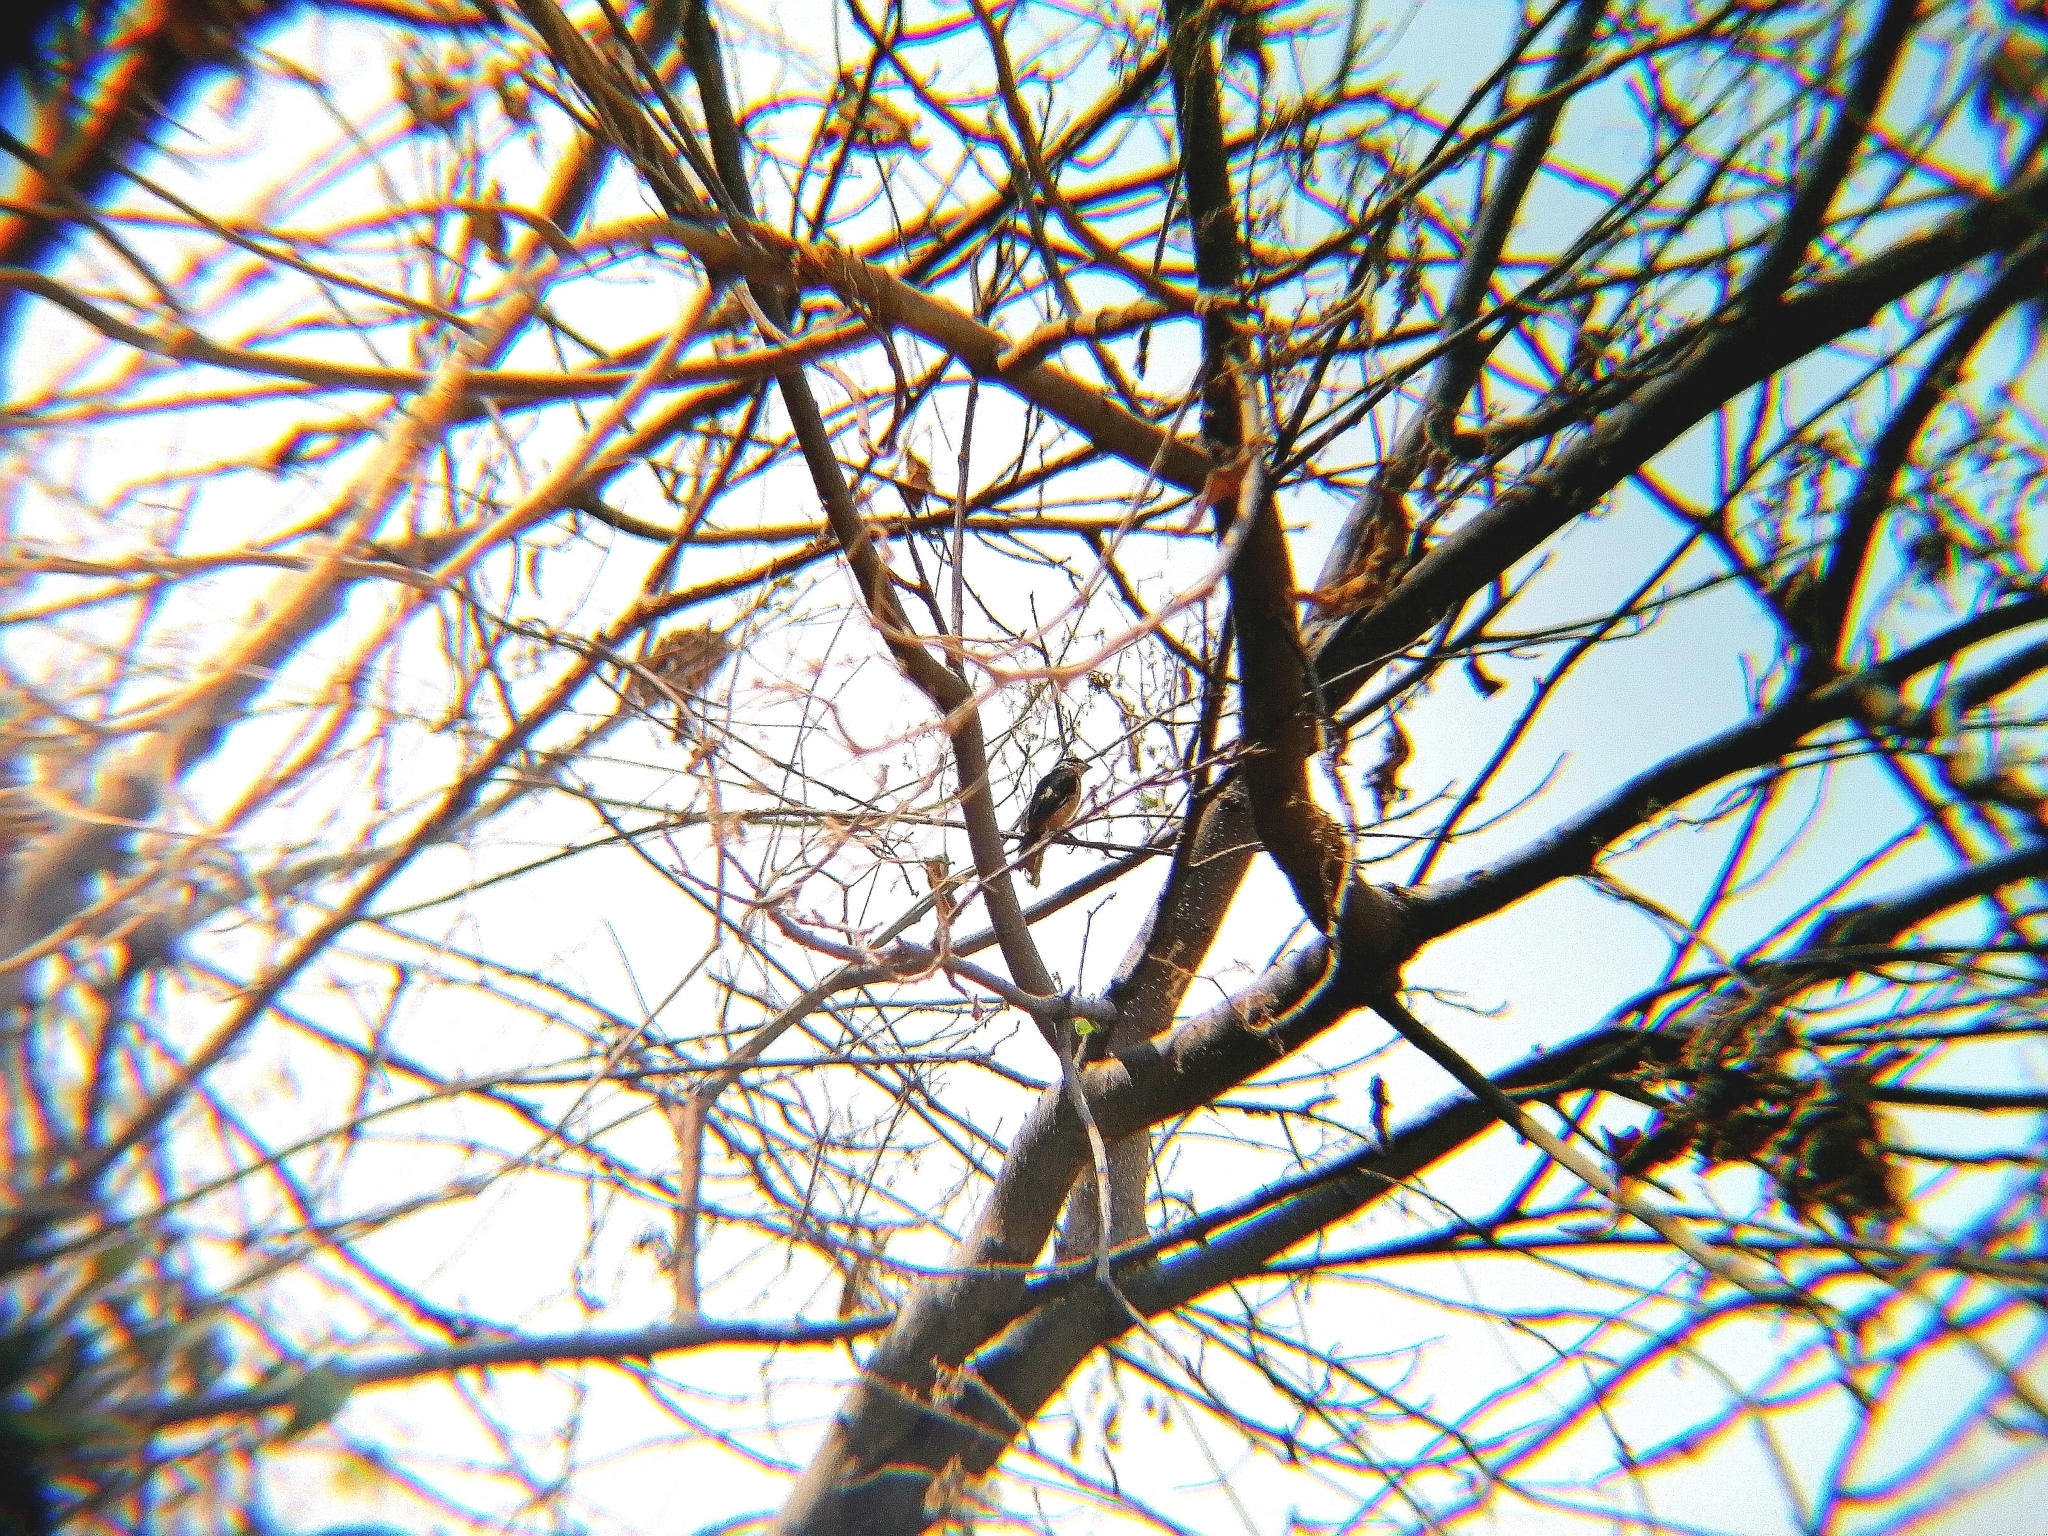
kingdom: Animalia
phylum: Chordata
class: Aves
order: Passeriformes
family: Thraupidae
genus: Sporophila
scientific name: Sporophila torqueola
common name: White-collared seedeater
